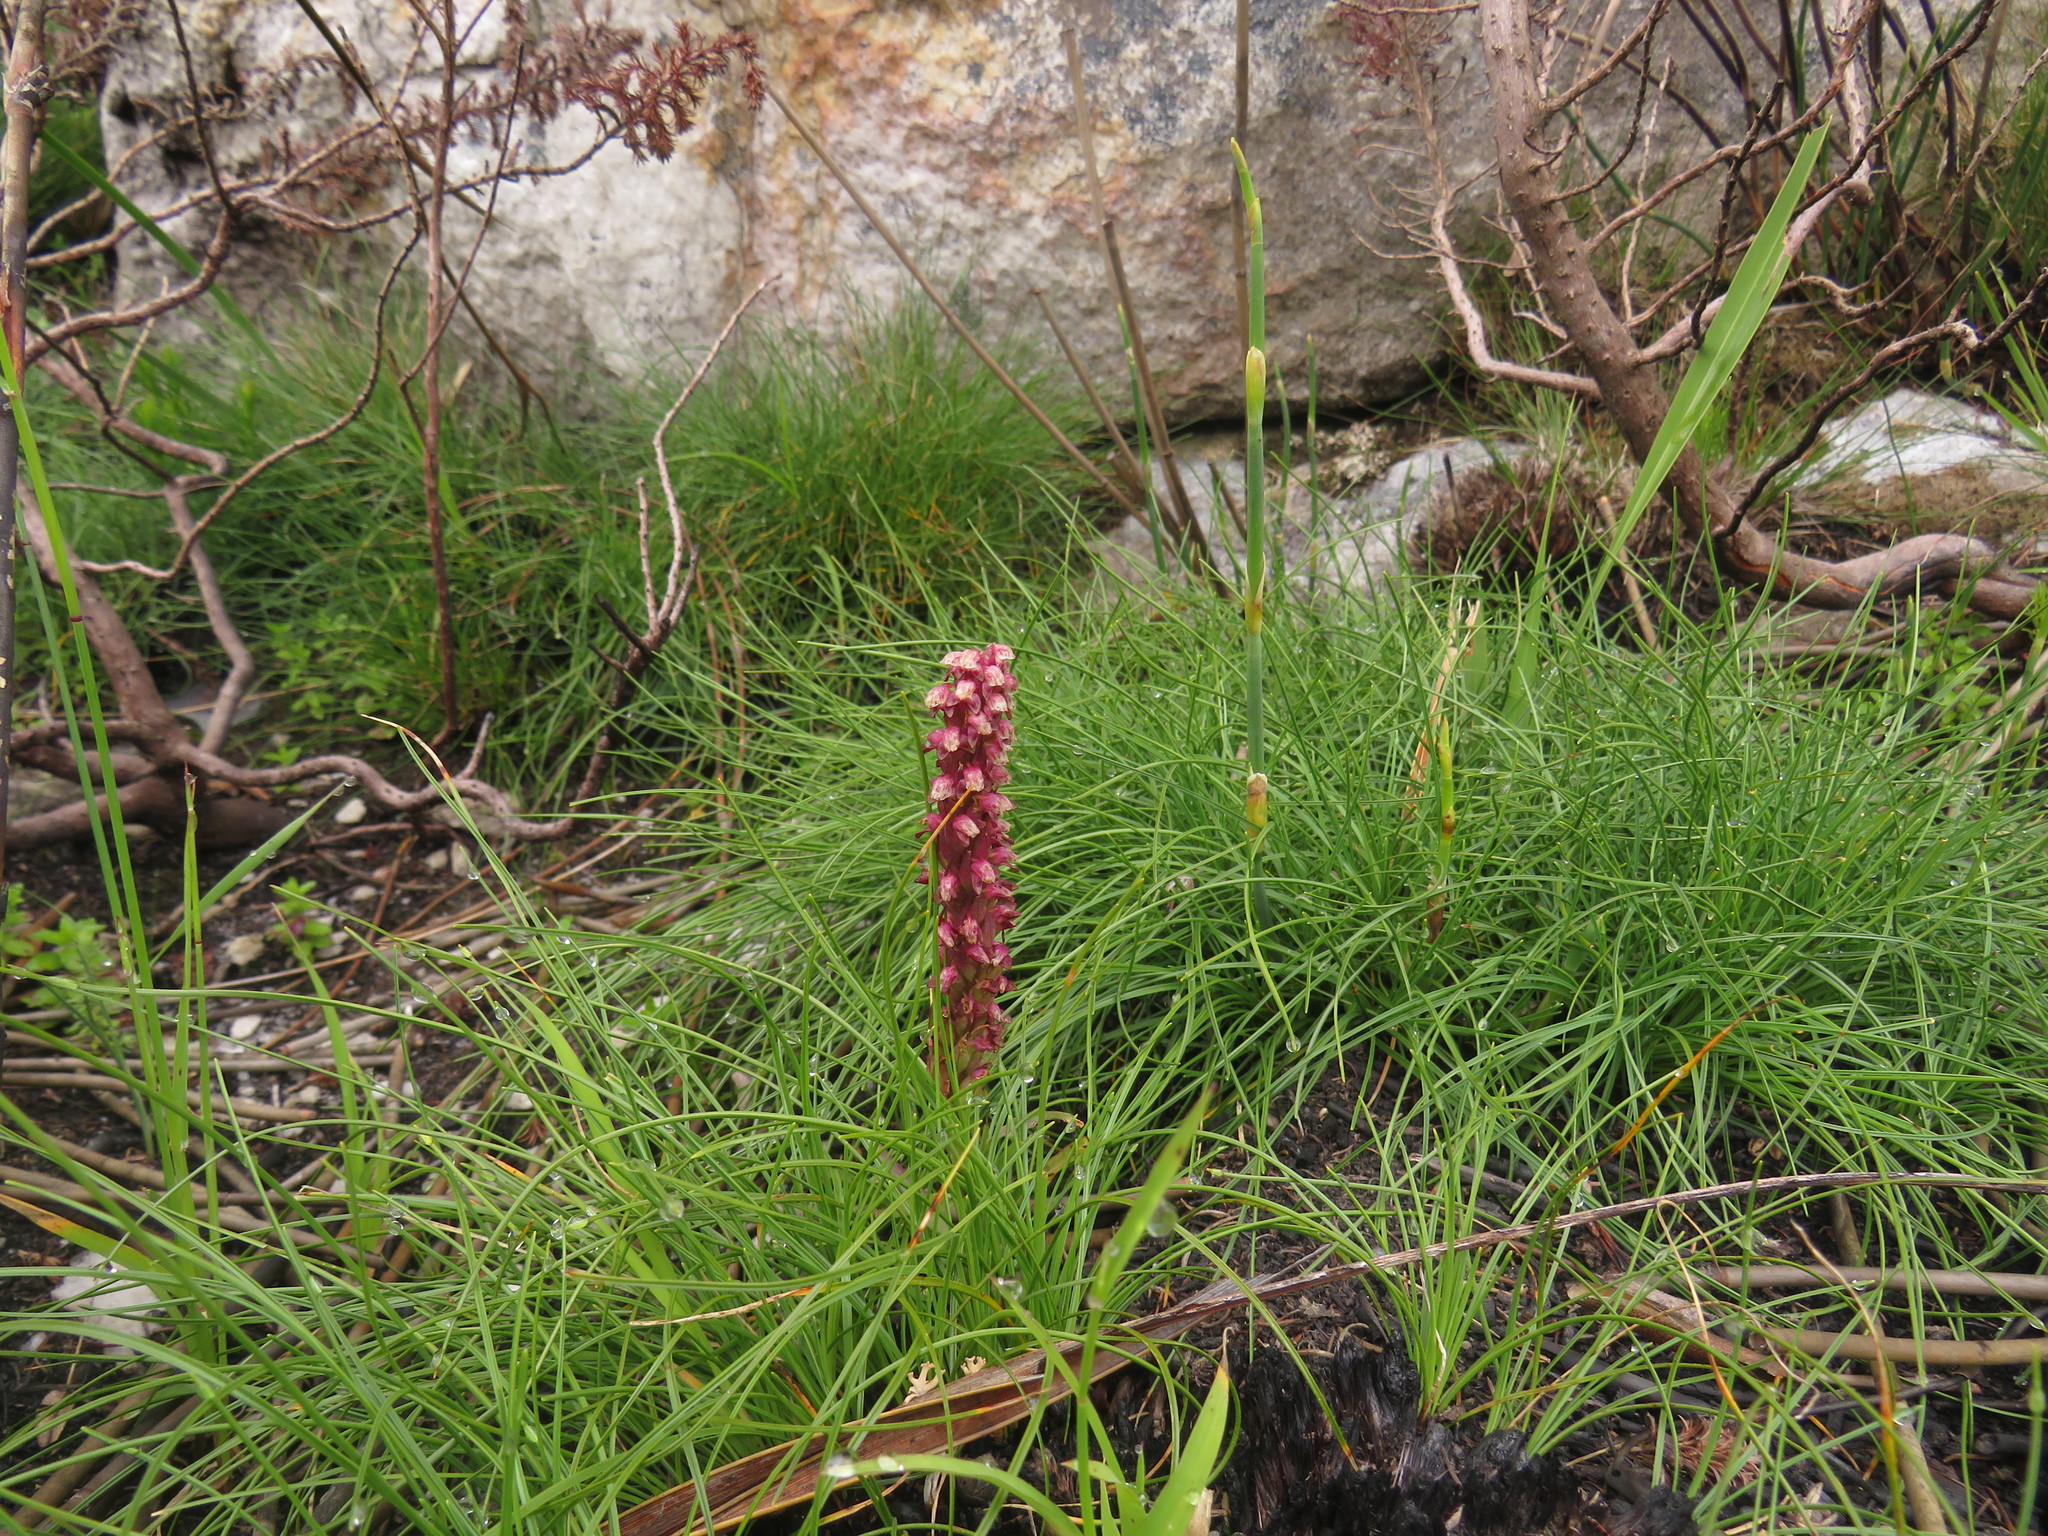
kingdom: Plantae
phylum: Tracheophyta
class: Liliopsida
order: Asparagales
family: Orchidaceae
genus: Disa
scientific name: Disa micropetala
